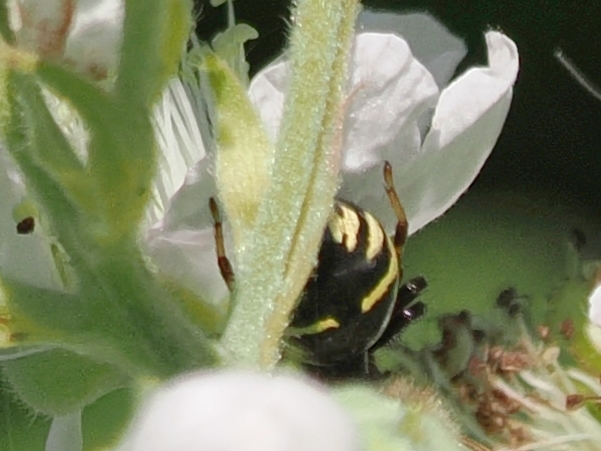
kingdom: Animalia
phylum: Arthropoda
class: Arachnida
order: Araneae
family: Thomisidae
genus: Synema
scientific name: Synema globosum
